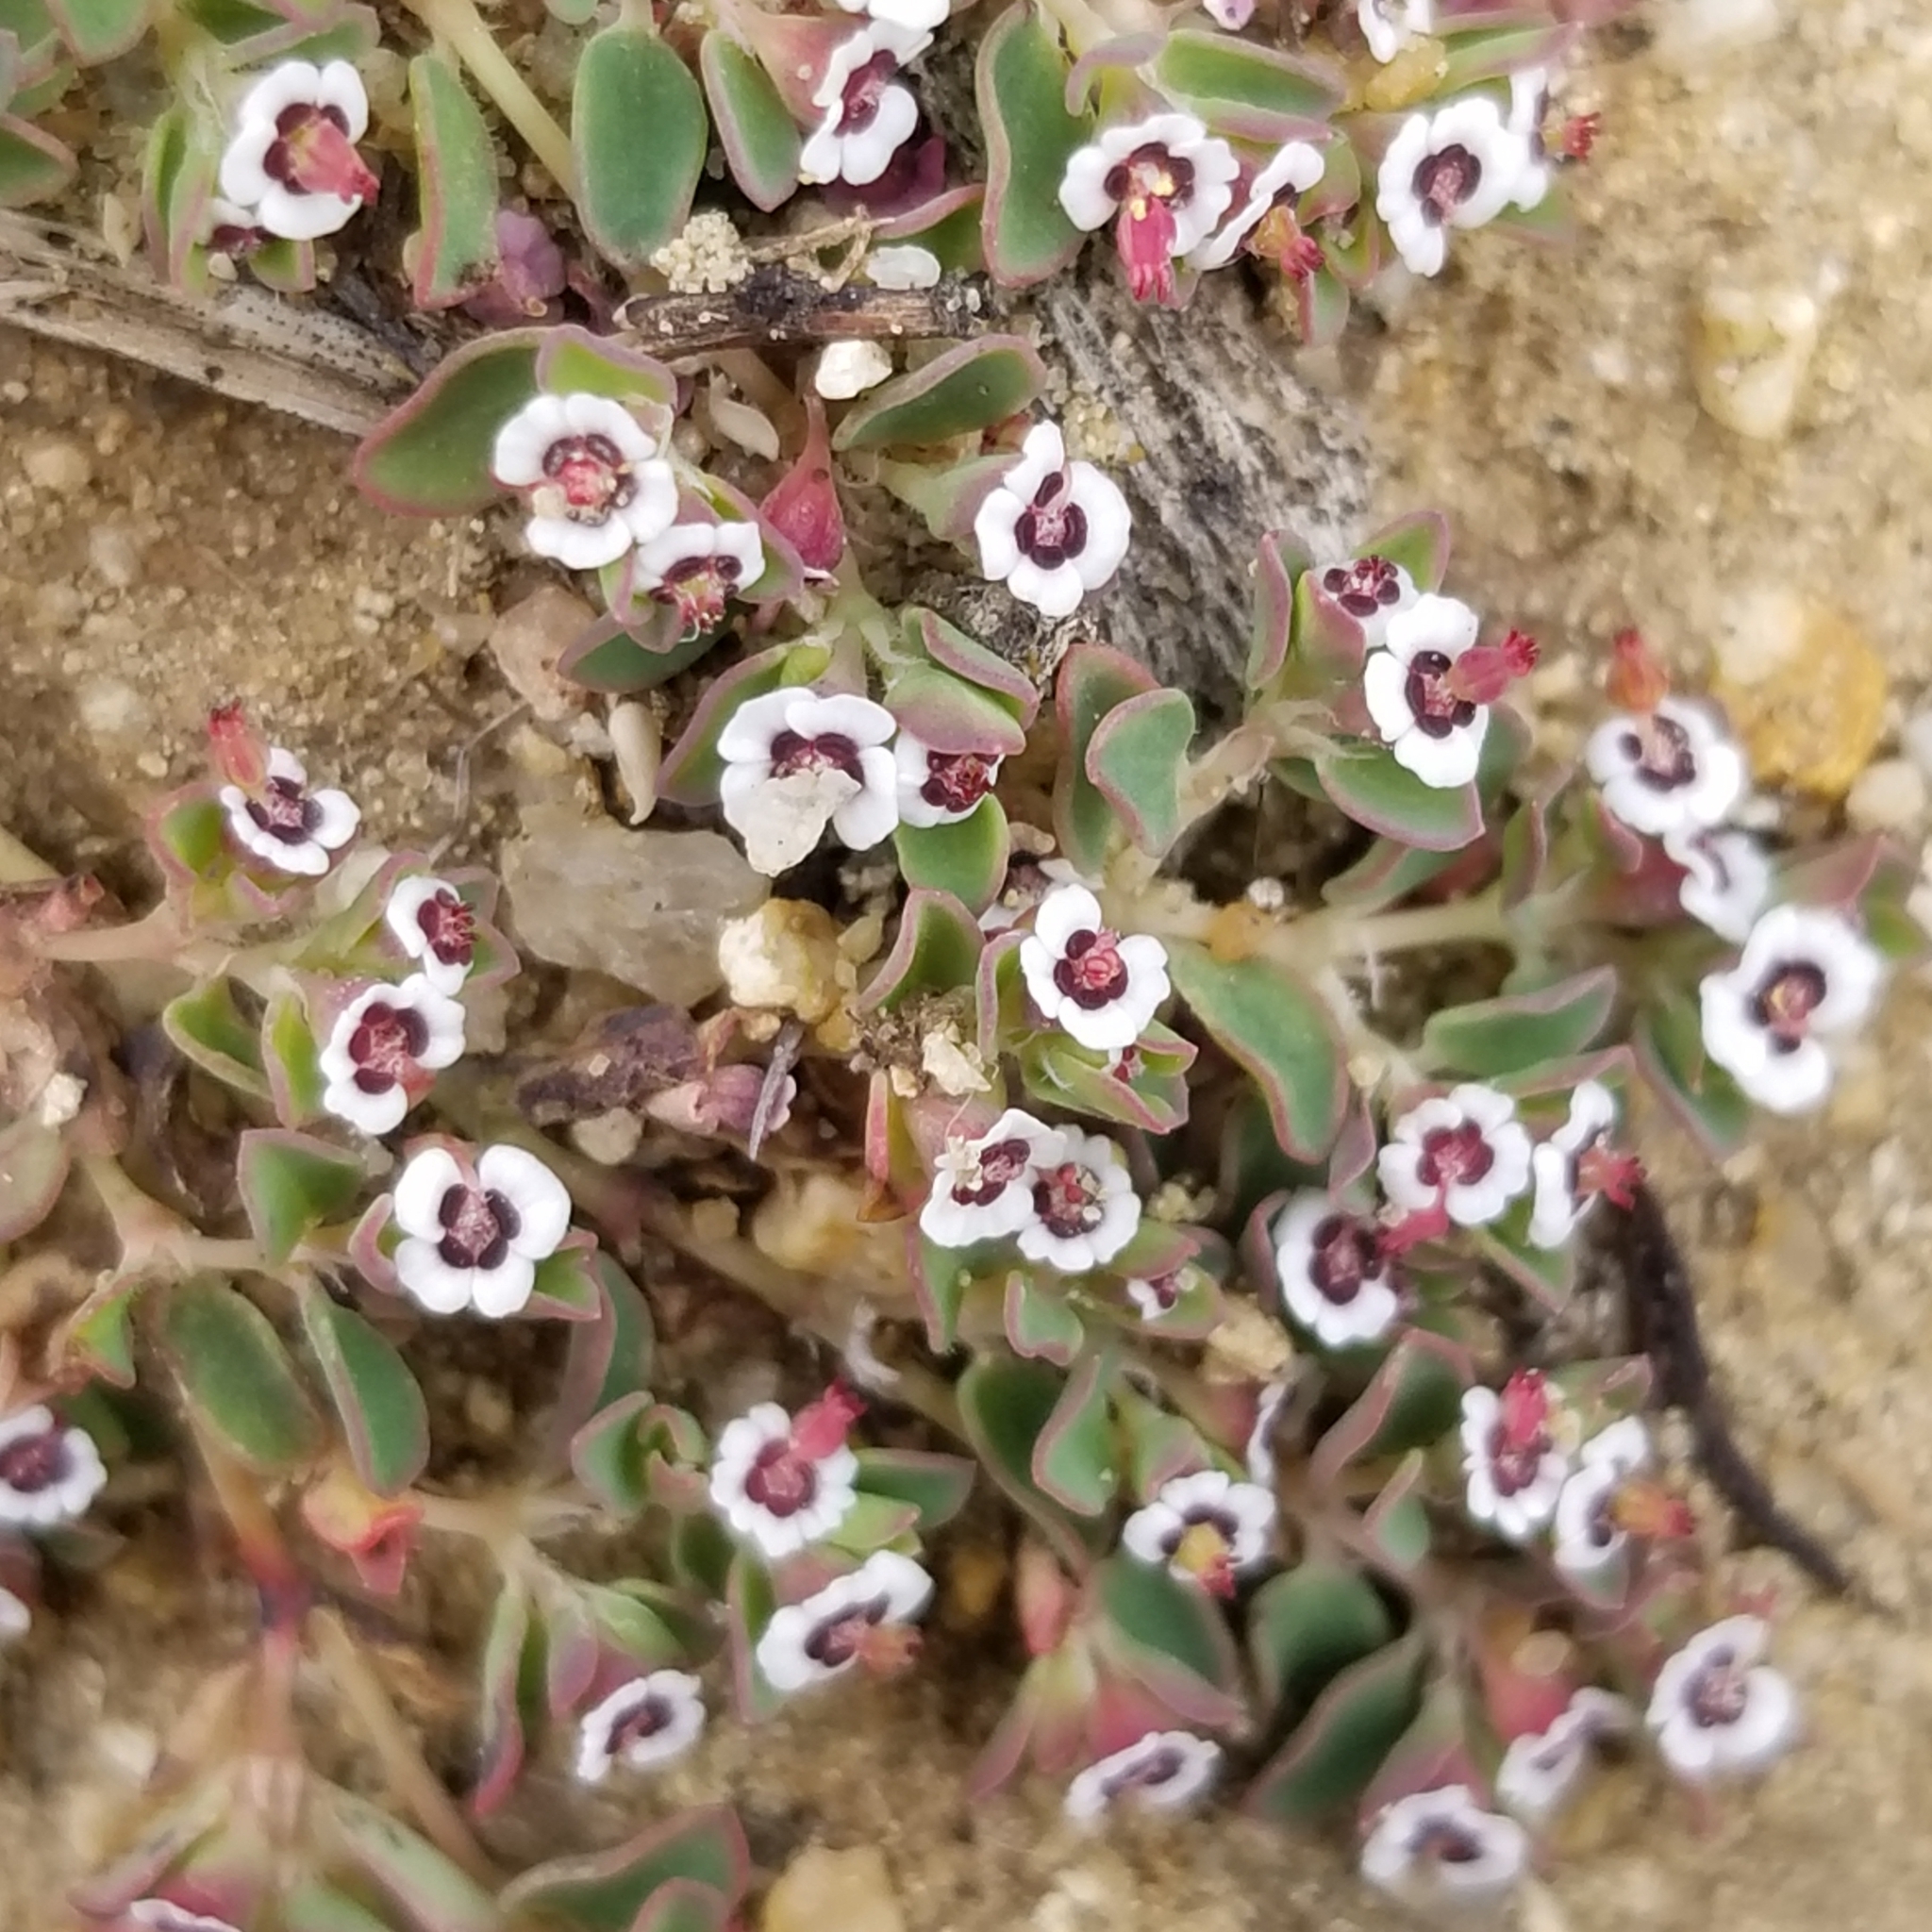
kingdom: Plantae
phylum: Tracheophyta
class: Magnoliopsida
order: Malpighiales
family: Euphorbiaceae
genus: Euphorbia
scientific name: Euphorbia polycarpa
